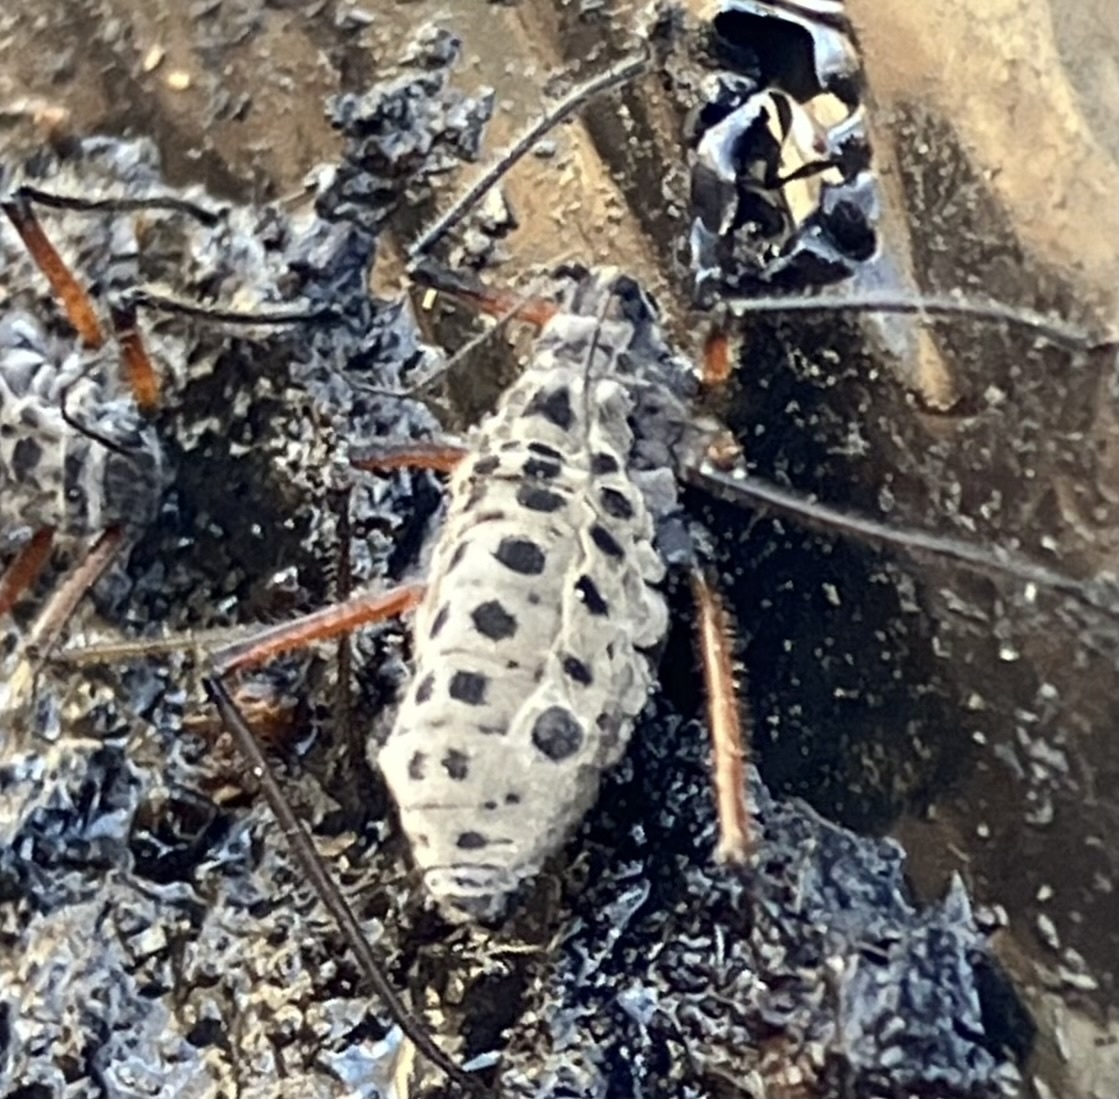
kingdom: Animalia
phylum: Arthropoda
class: Insecta
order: Hemiptera
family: Aphididae
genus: Longistigma
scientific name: Longistigma caryae
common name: Giant bark aphid
